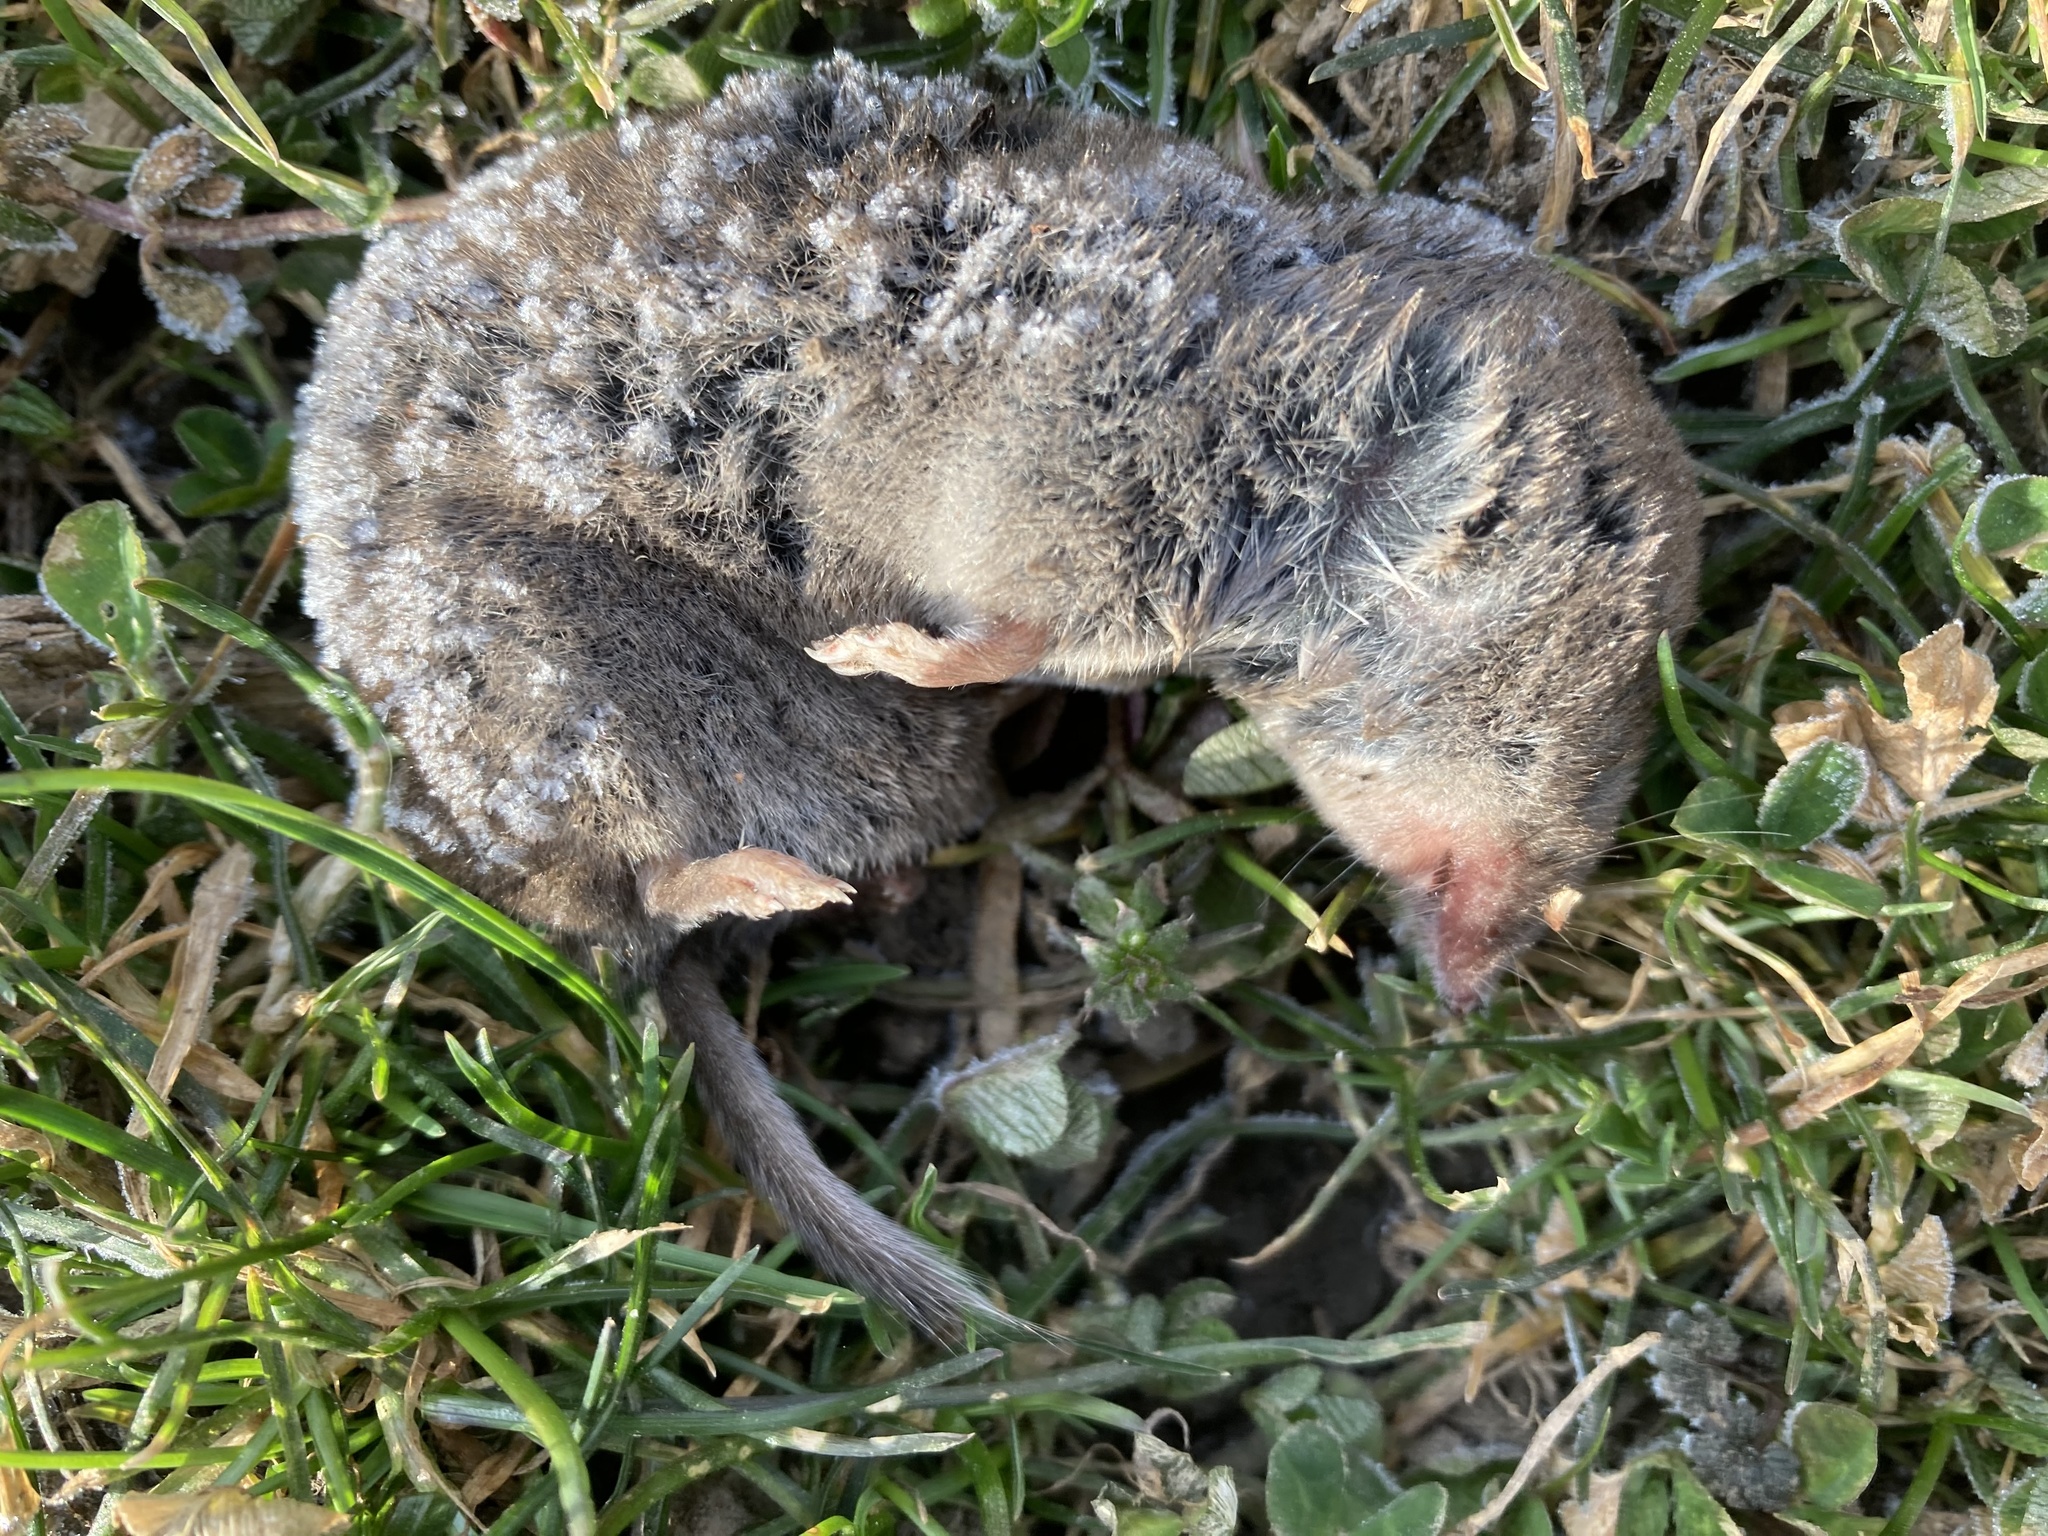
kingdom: Animalia
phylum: Chordata
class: Mammalia
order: Soricomorpha
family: Soricidae
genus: Blarina
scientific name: Blarina brevicauda
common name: Northern short-tailed shrew
